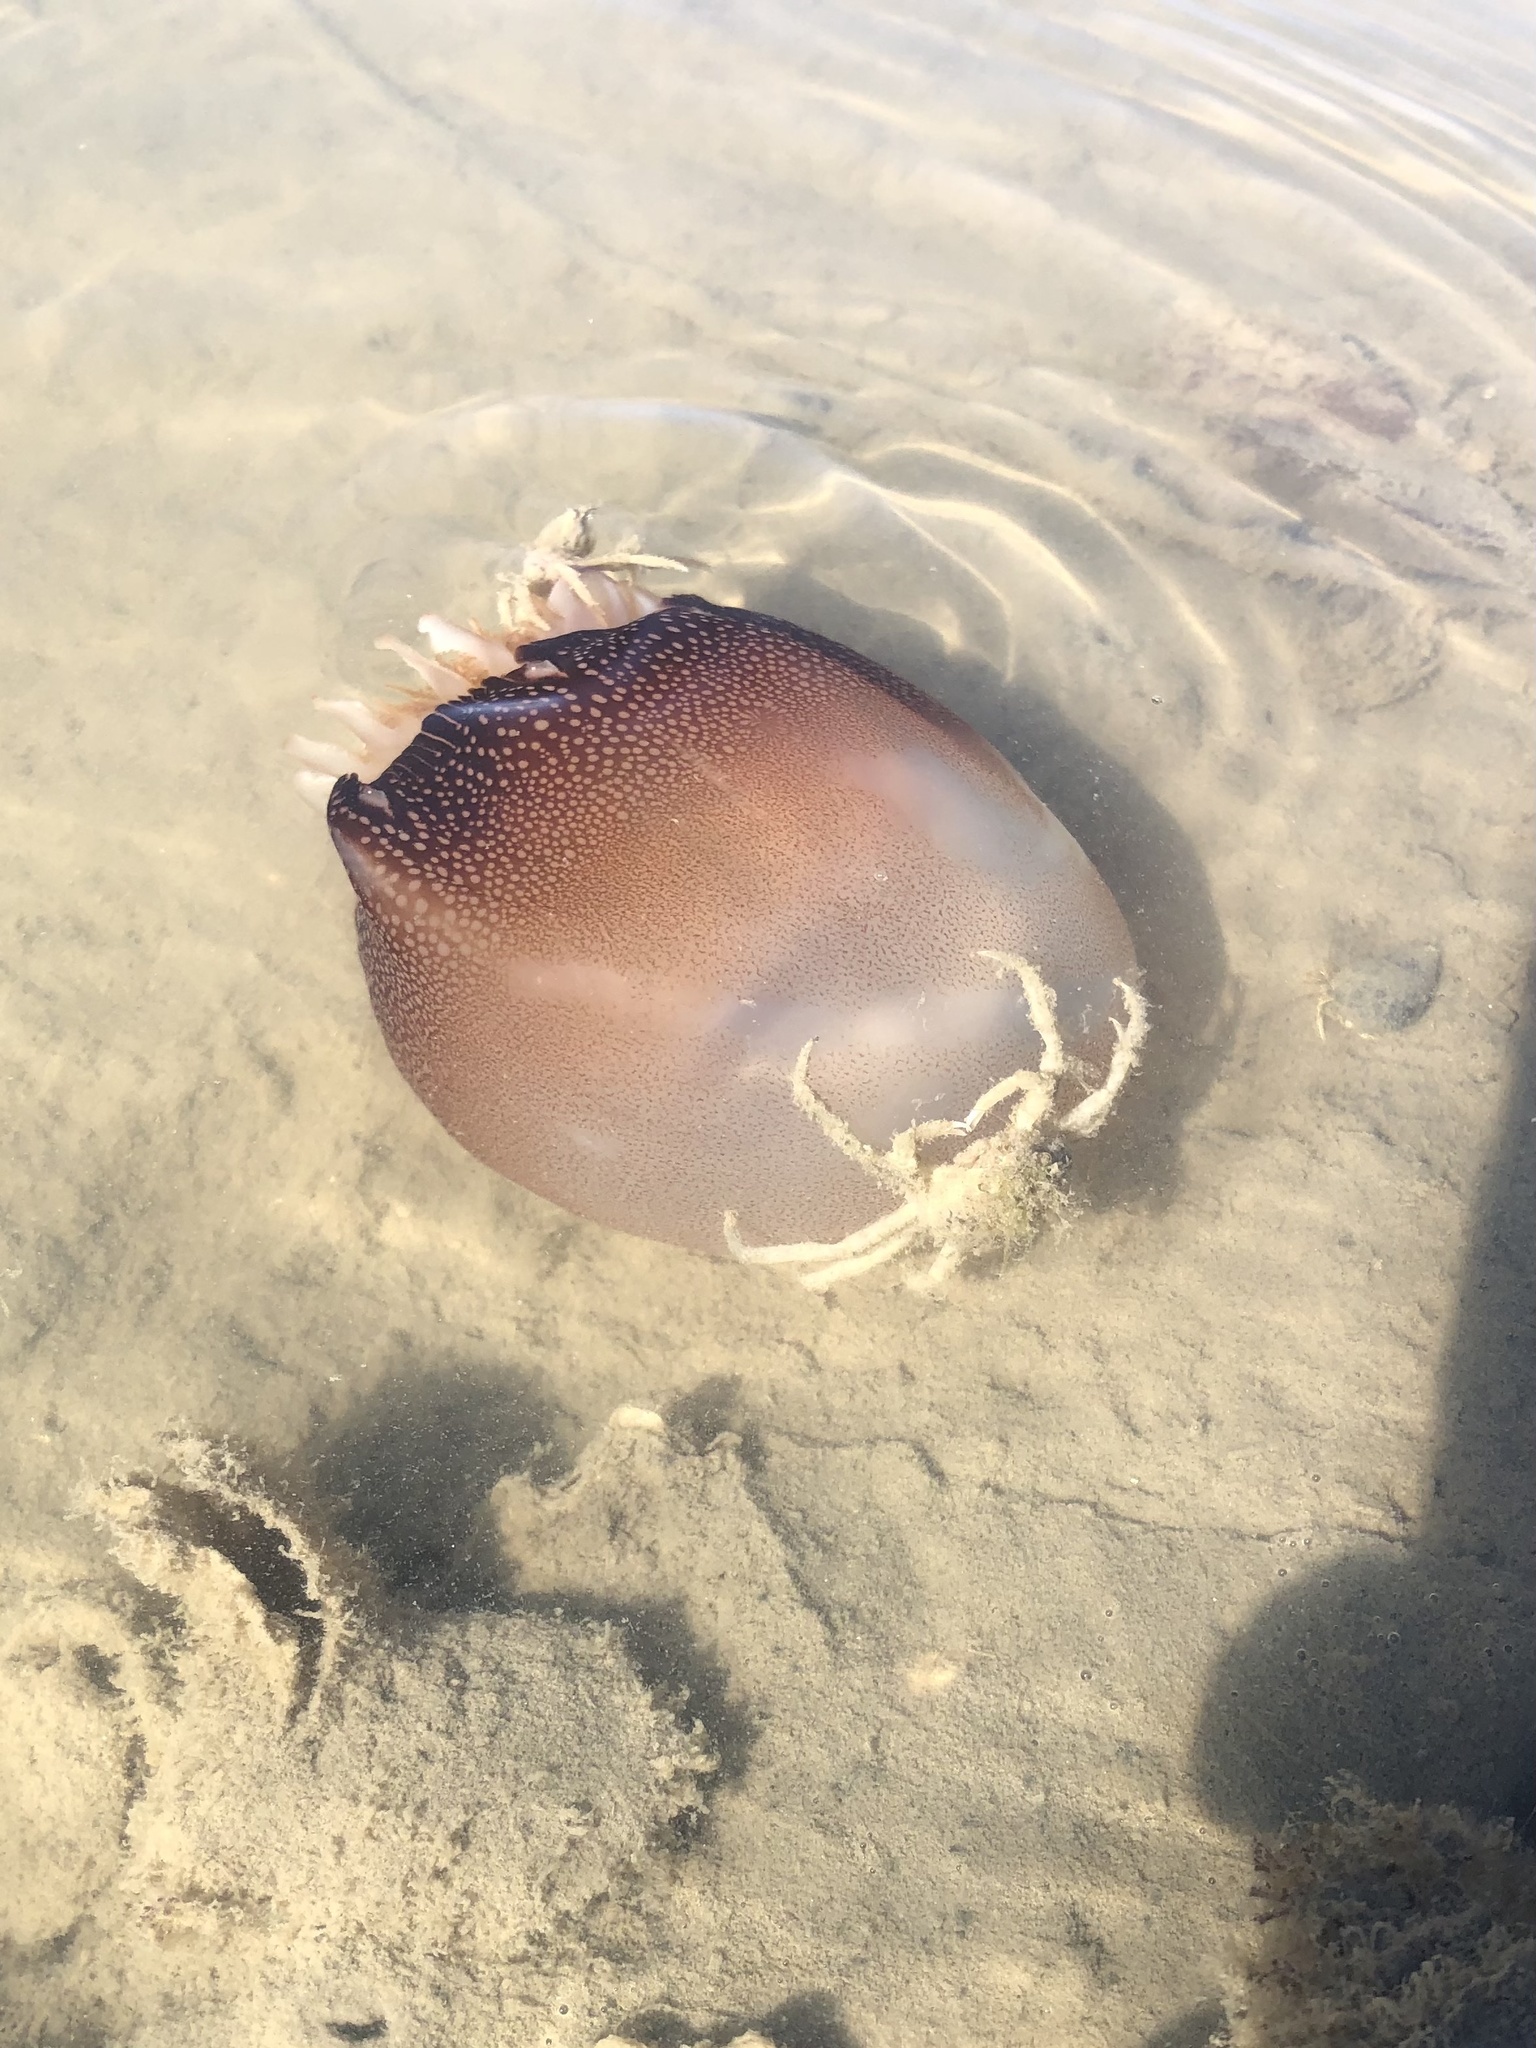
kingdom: Animalia
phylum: Cnidaria
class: Scyphozoa
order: Rhizostomeae
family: Stomolophidae
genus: Stomolophus
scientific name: Stomolophus meleagris
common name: Cabbagehead
